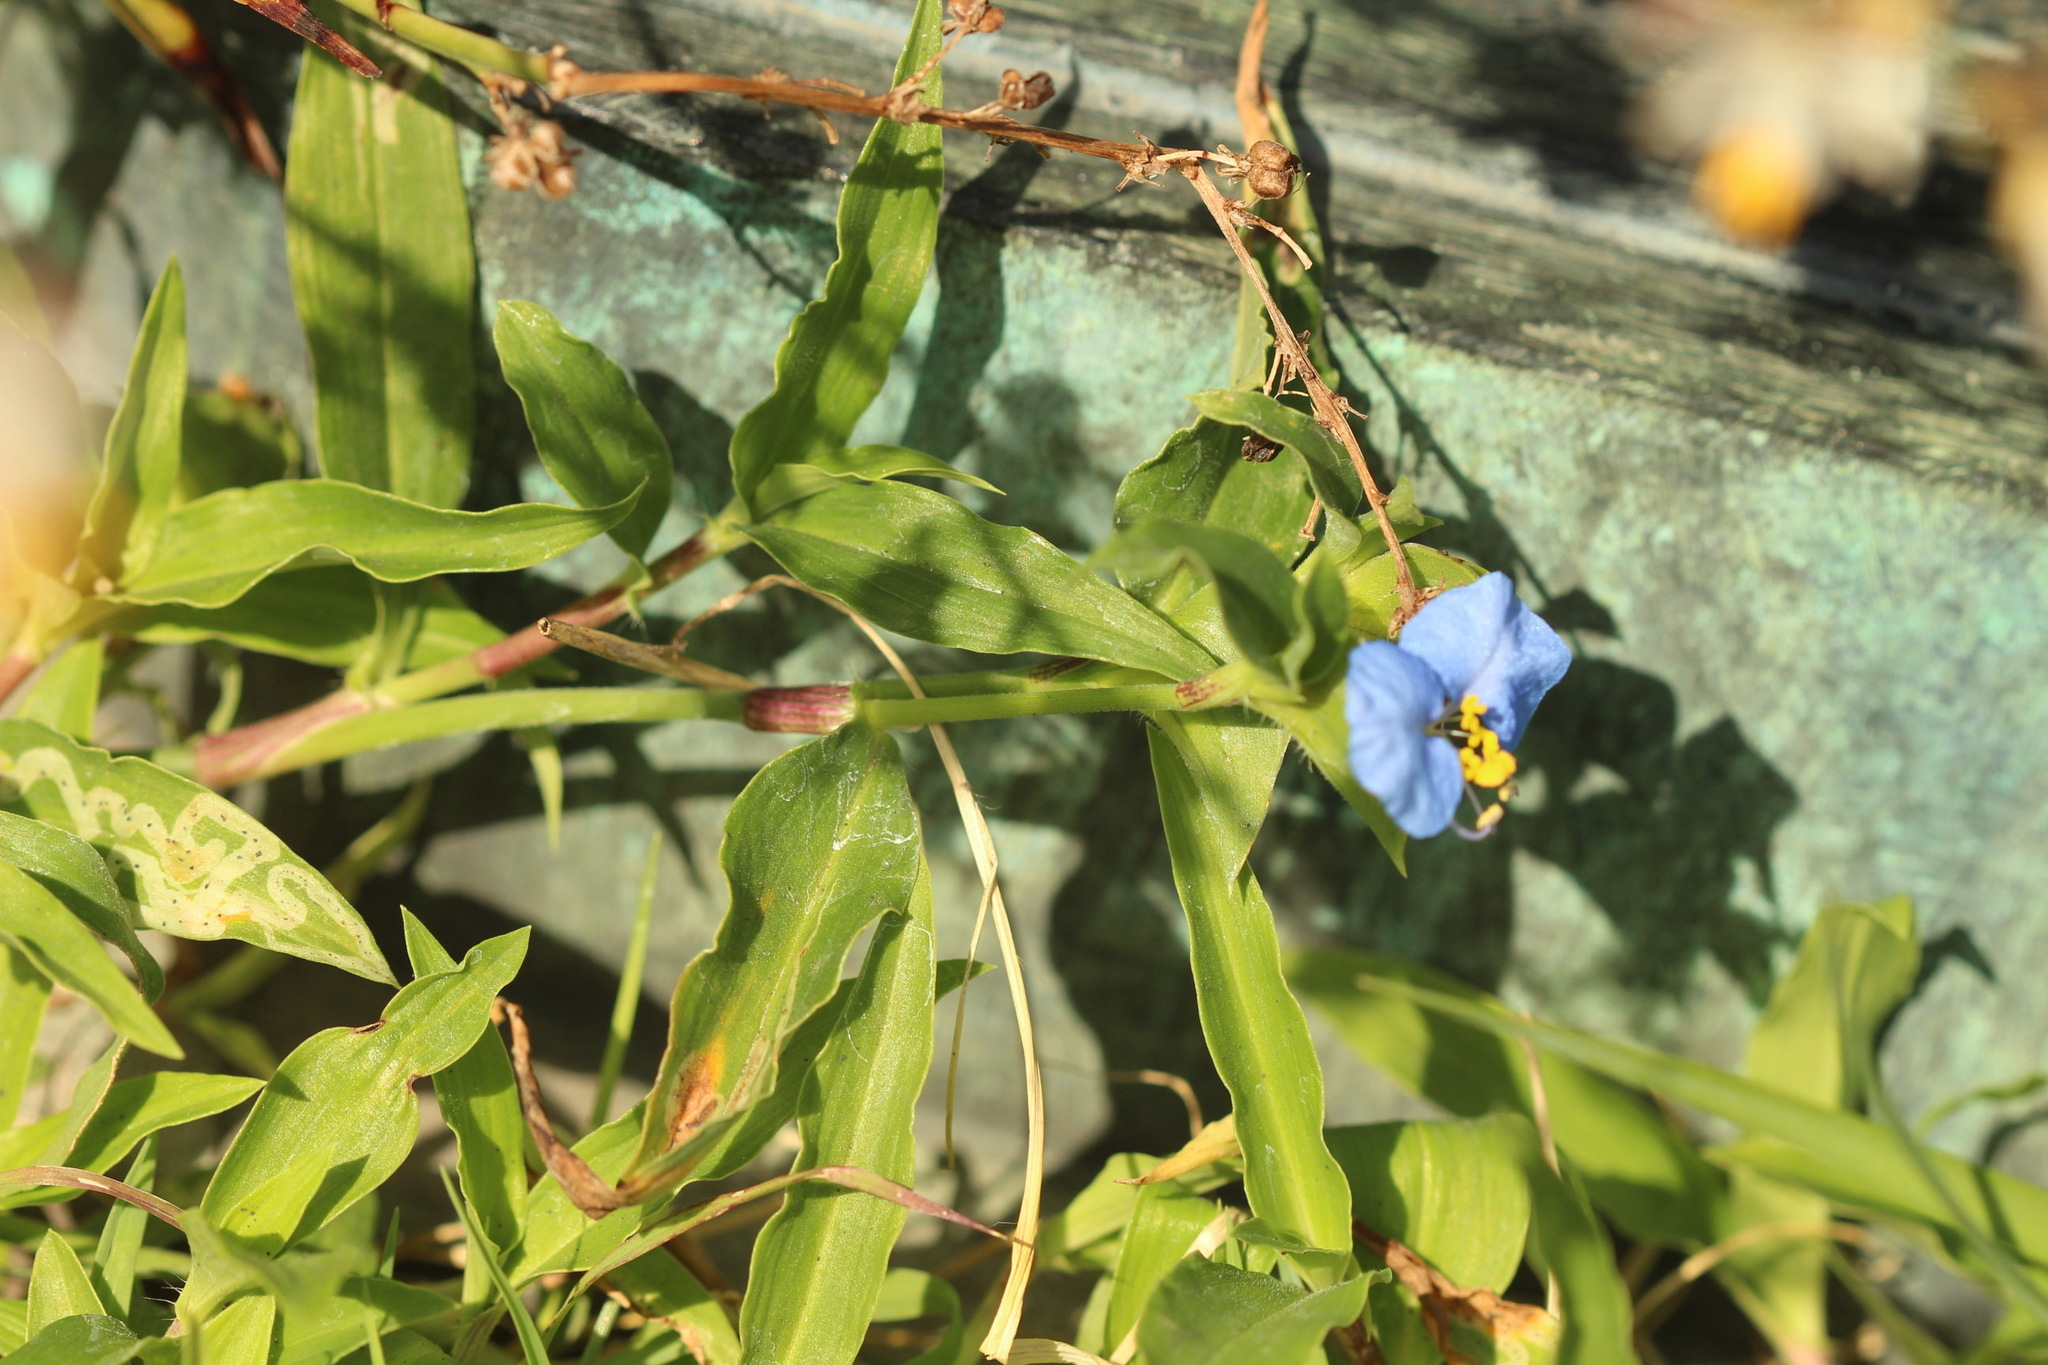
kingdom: Plantae
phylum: Tracheophyta
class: Liliopsida
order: Commelinales
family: Commelinaceae
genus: Commelina
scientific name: Commelina erecta
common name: Blousel blommetjie
